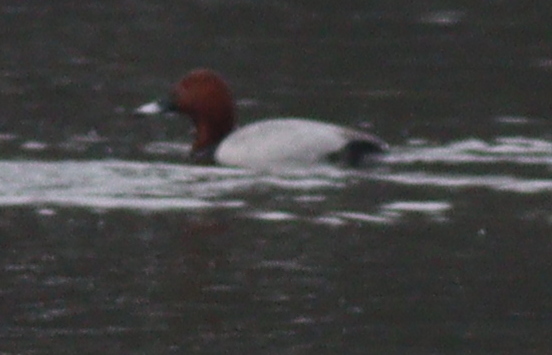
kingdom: Animalia
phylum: Chordata
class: Aves
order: Anseriformes
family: Anatidae
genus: Aythya
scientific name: Aythya ferina
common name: Common pochard
